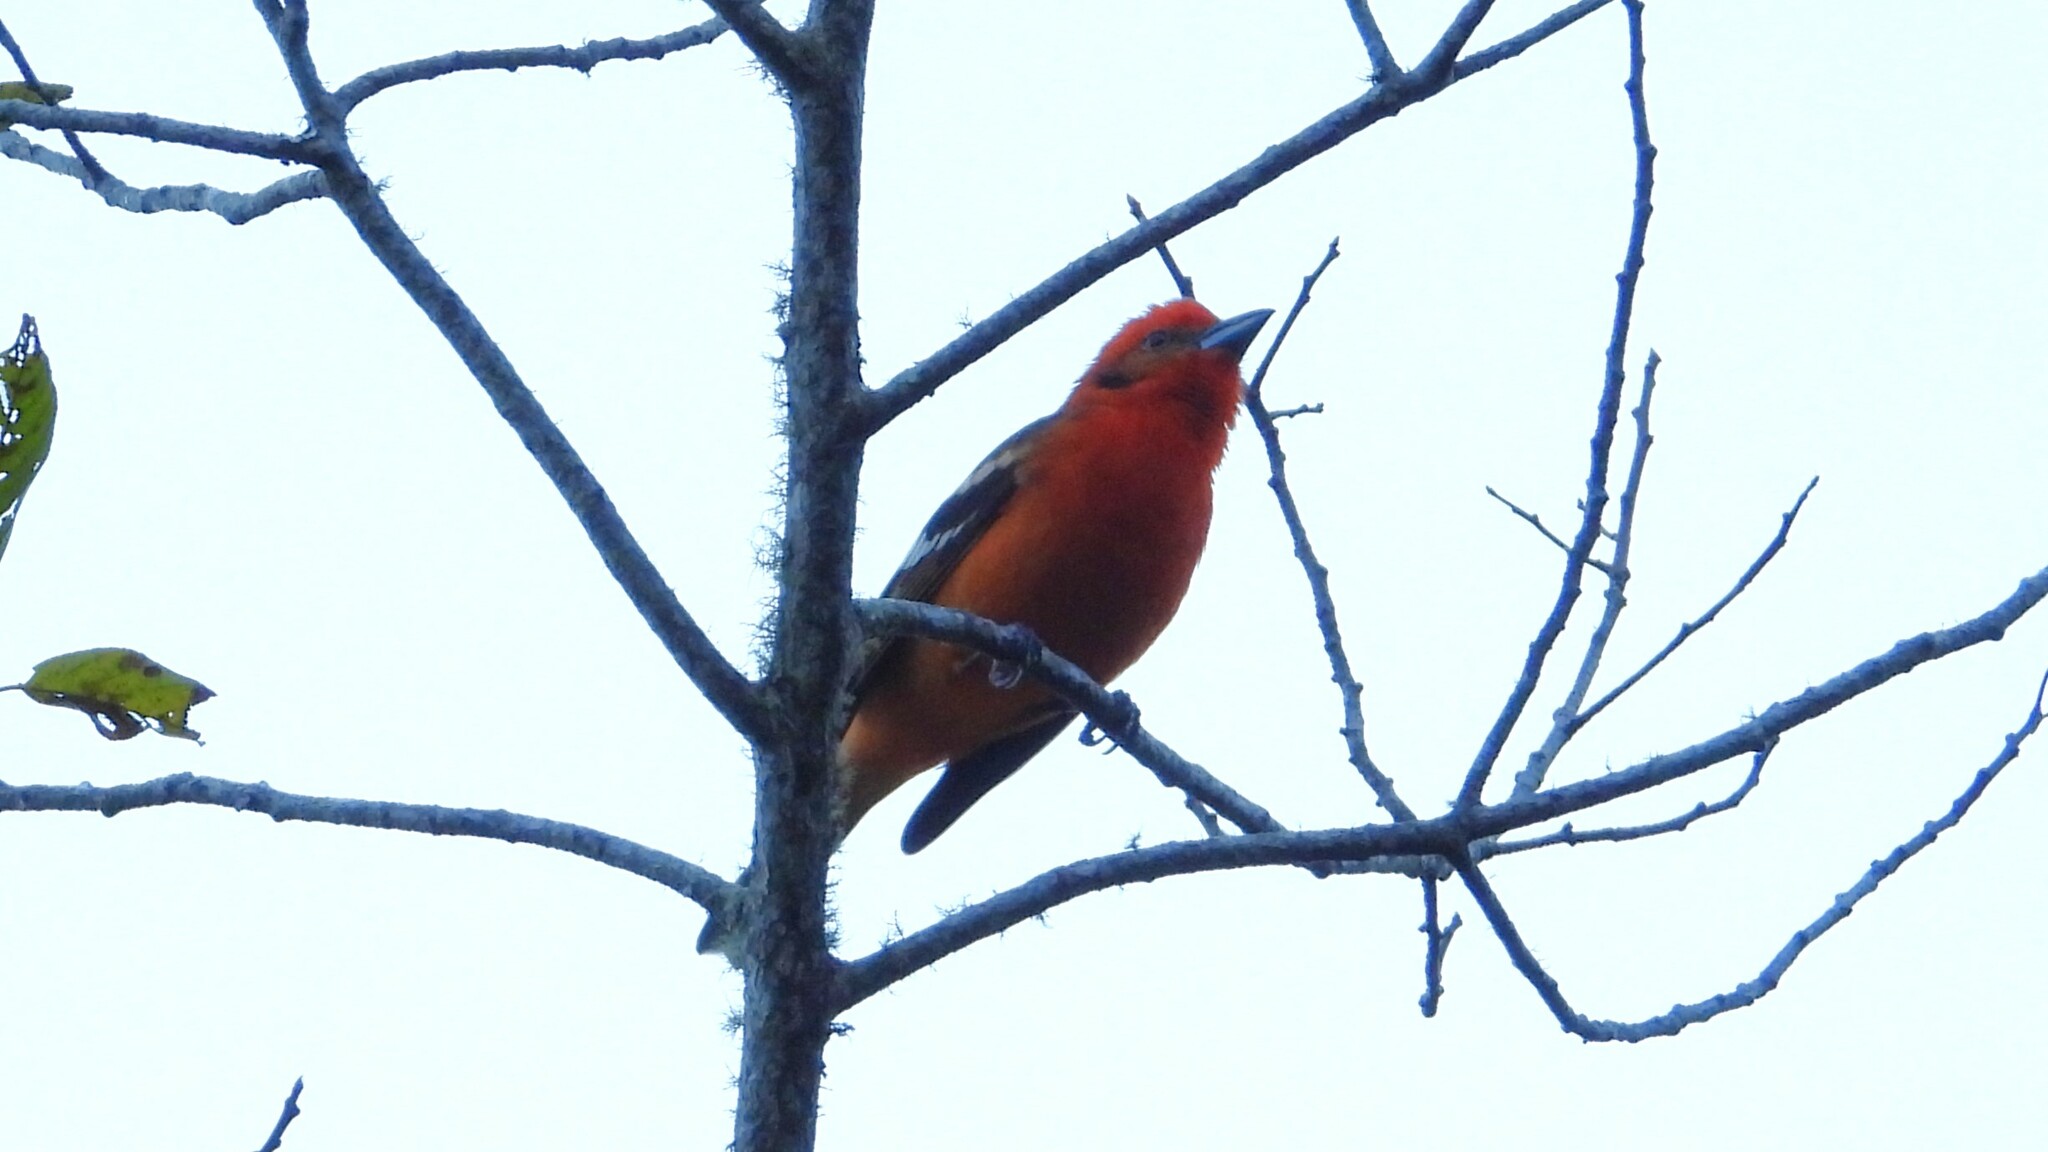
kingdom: Animalia
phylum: Chordata
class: Aves
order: Passeriformes
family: Cardinalidae
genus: Piranga
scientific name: Piranga bidentata
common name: Flame-colored tanager
